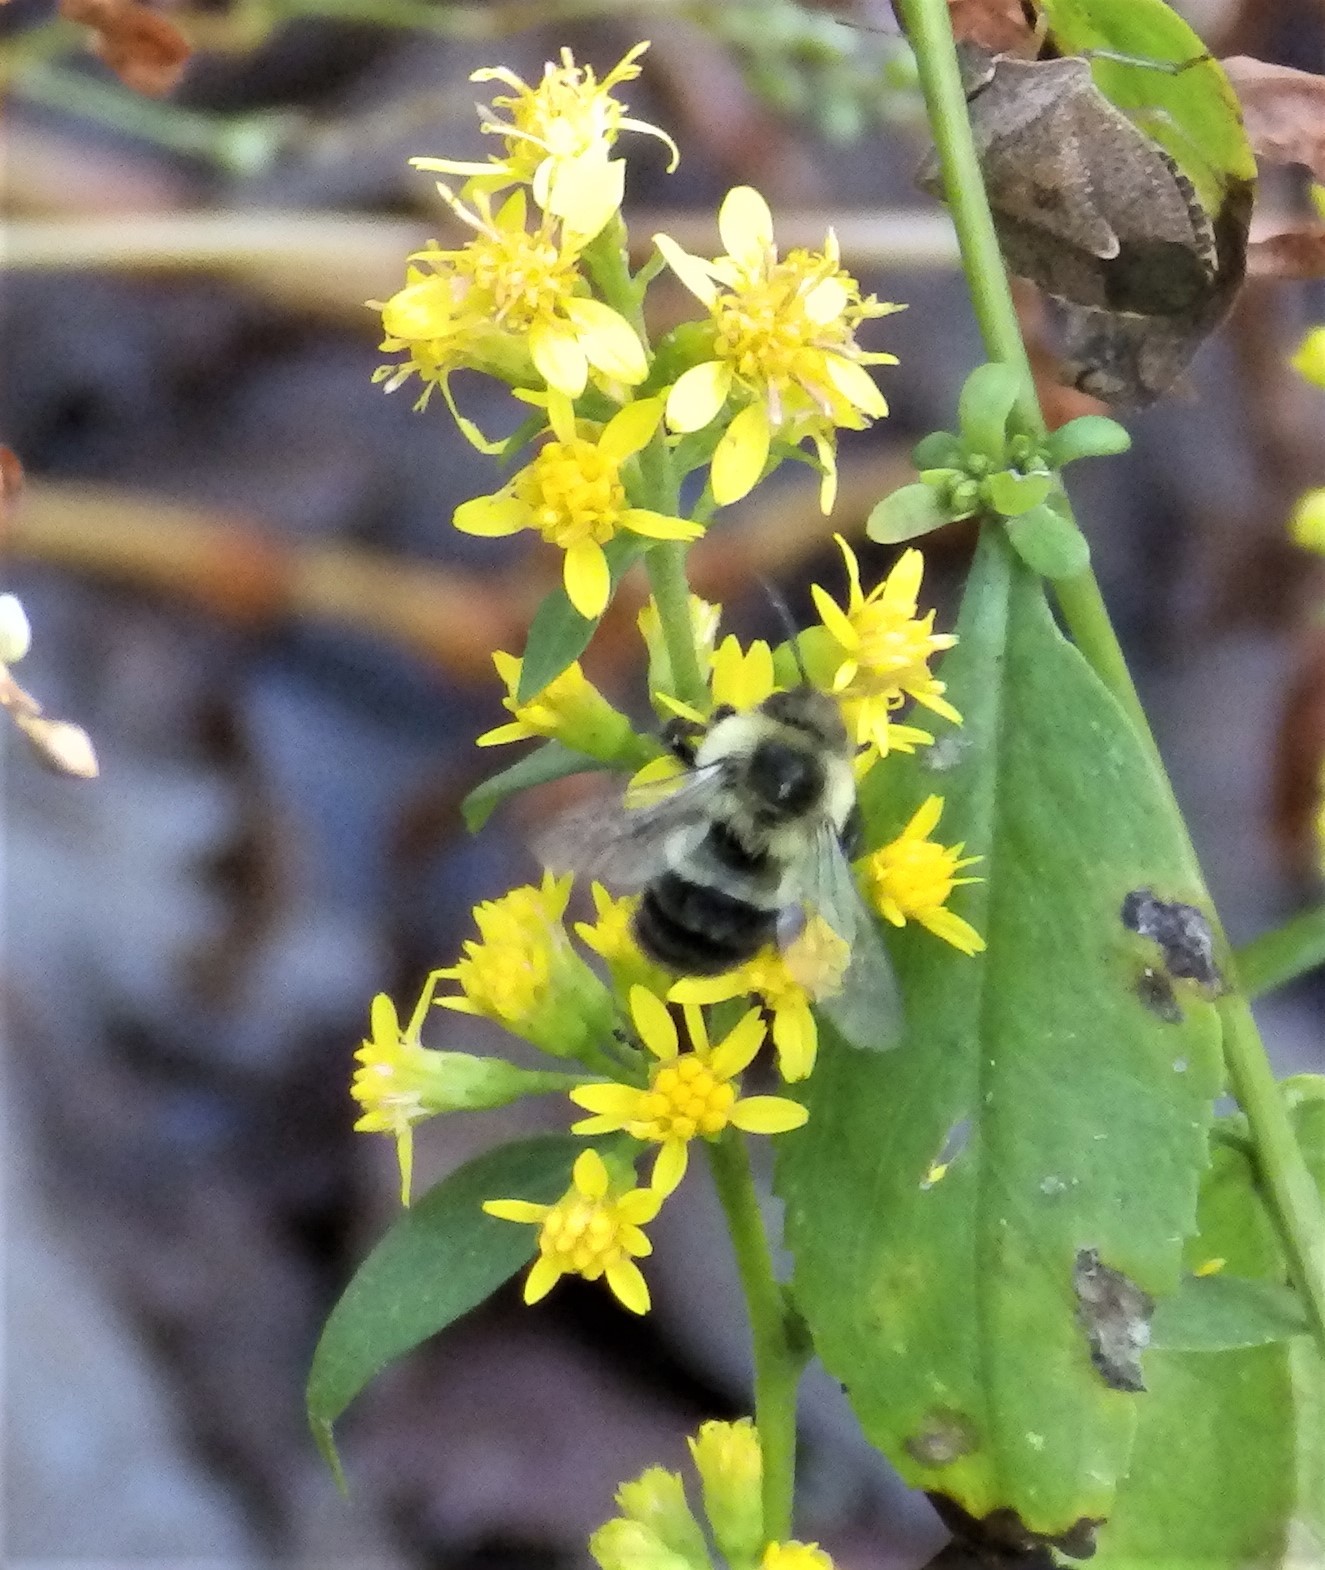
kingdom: Animalia
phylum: Arthropoda
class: Insecta
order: Hymenoptera
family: Apidae
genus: Bombus
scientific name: Bombus impatiens
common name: Common eastern bumble bee
